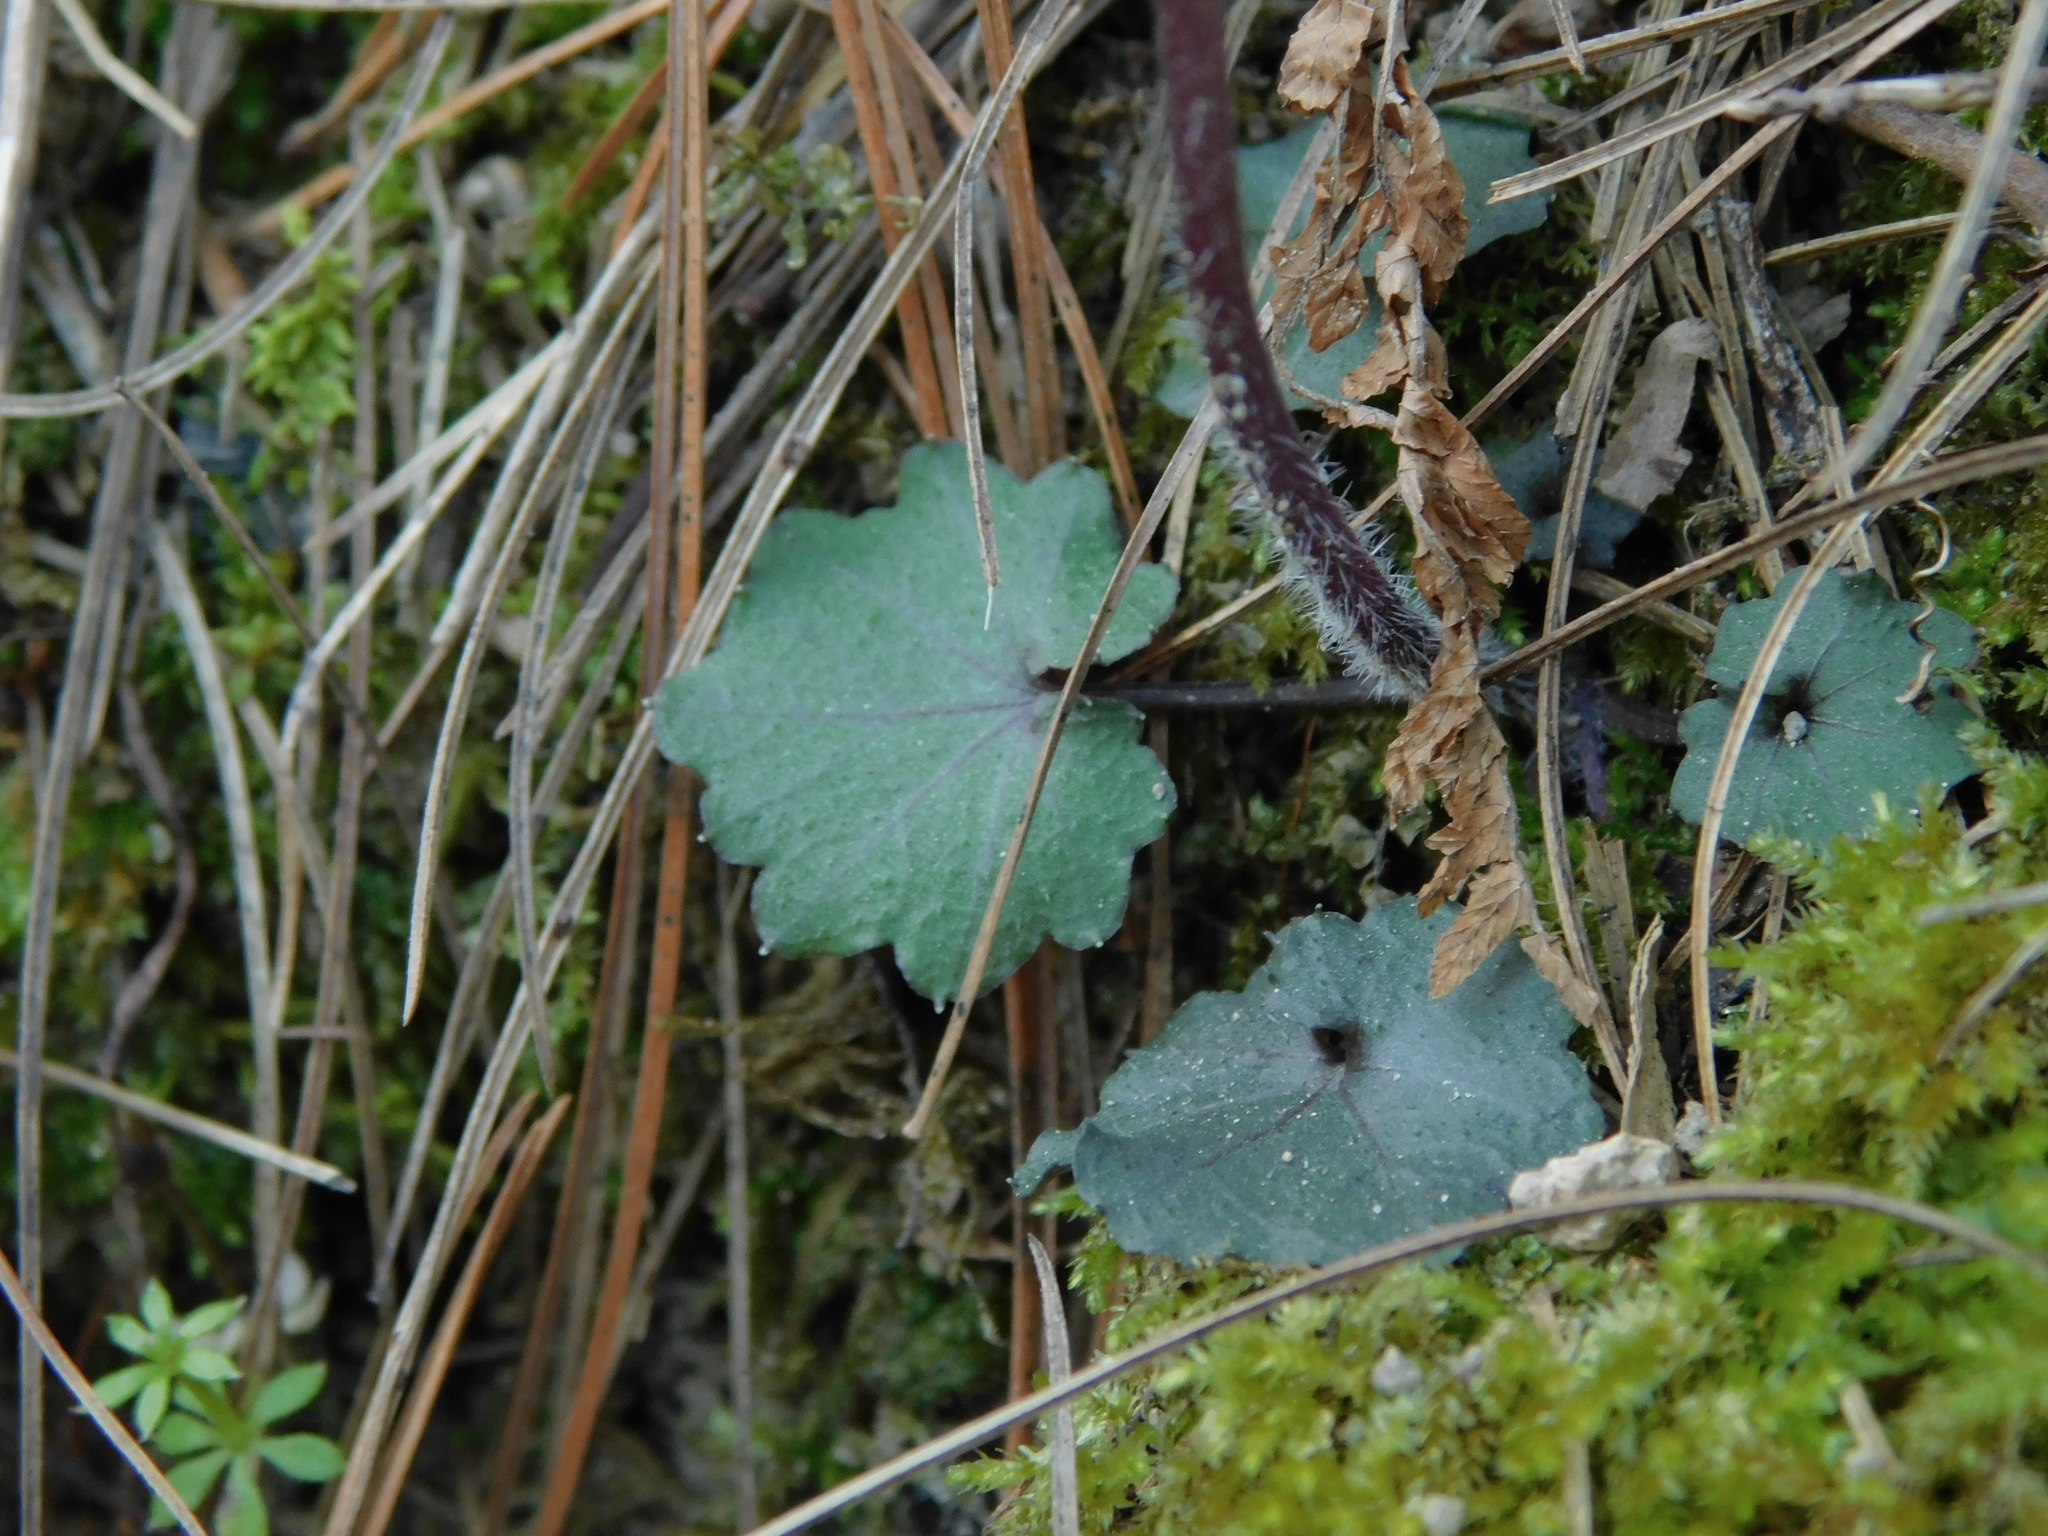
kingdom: Plantae
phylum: Tracheophyta
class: Magnoliopsida
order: Brassicales
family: Brassicaceae
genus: Cardamine
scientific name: Cardamine flagellifera
